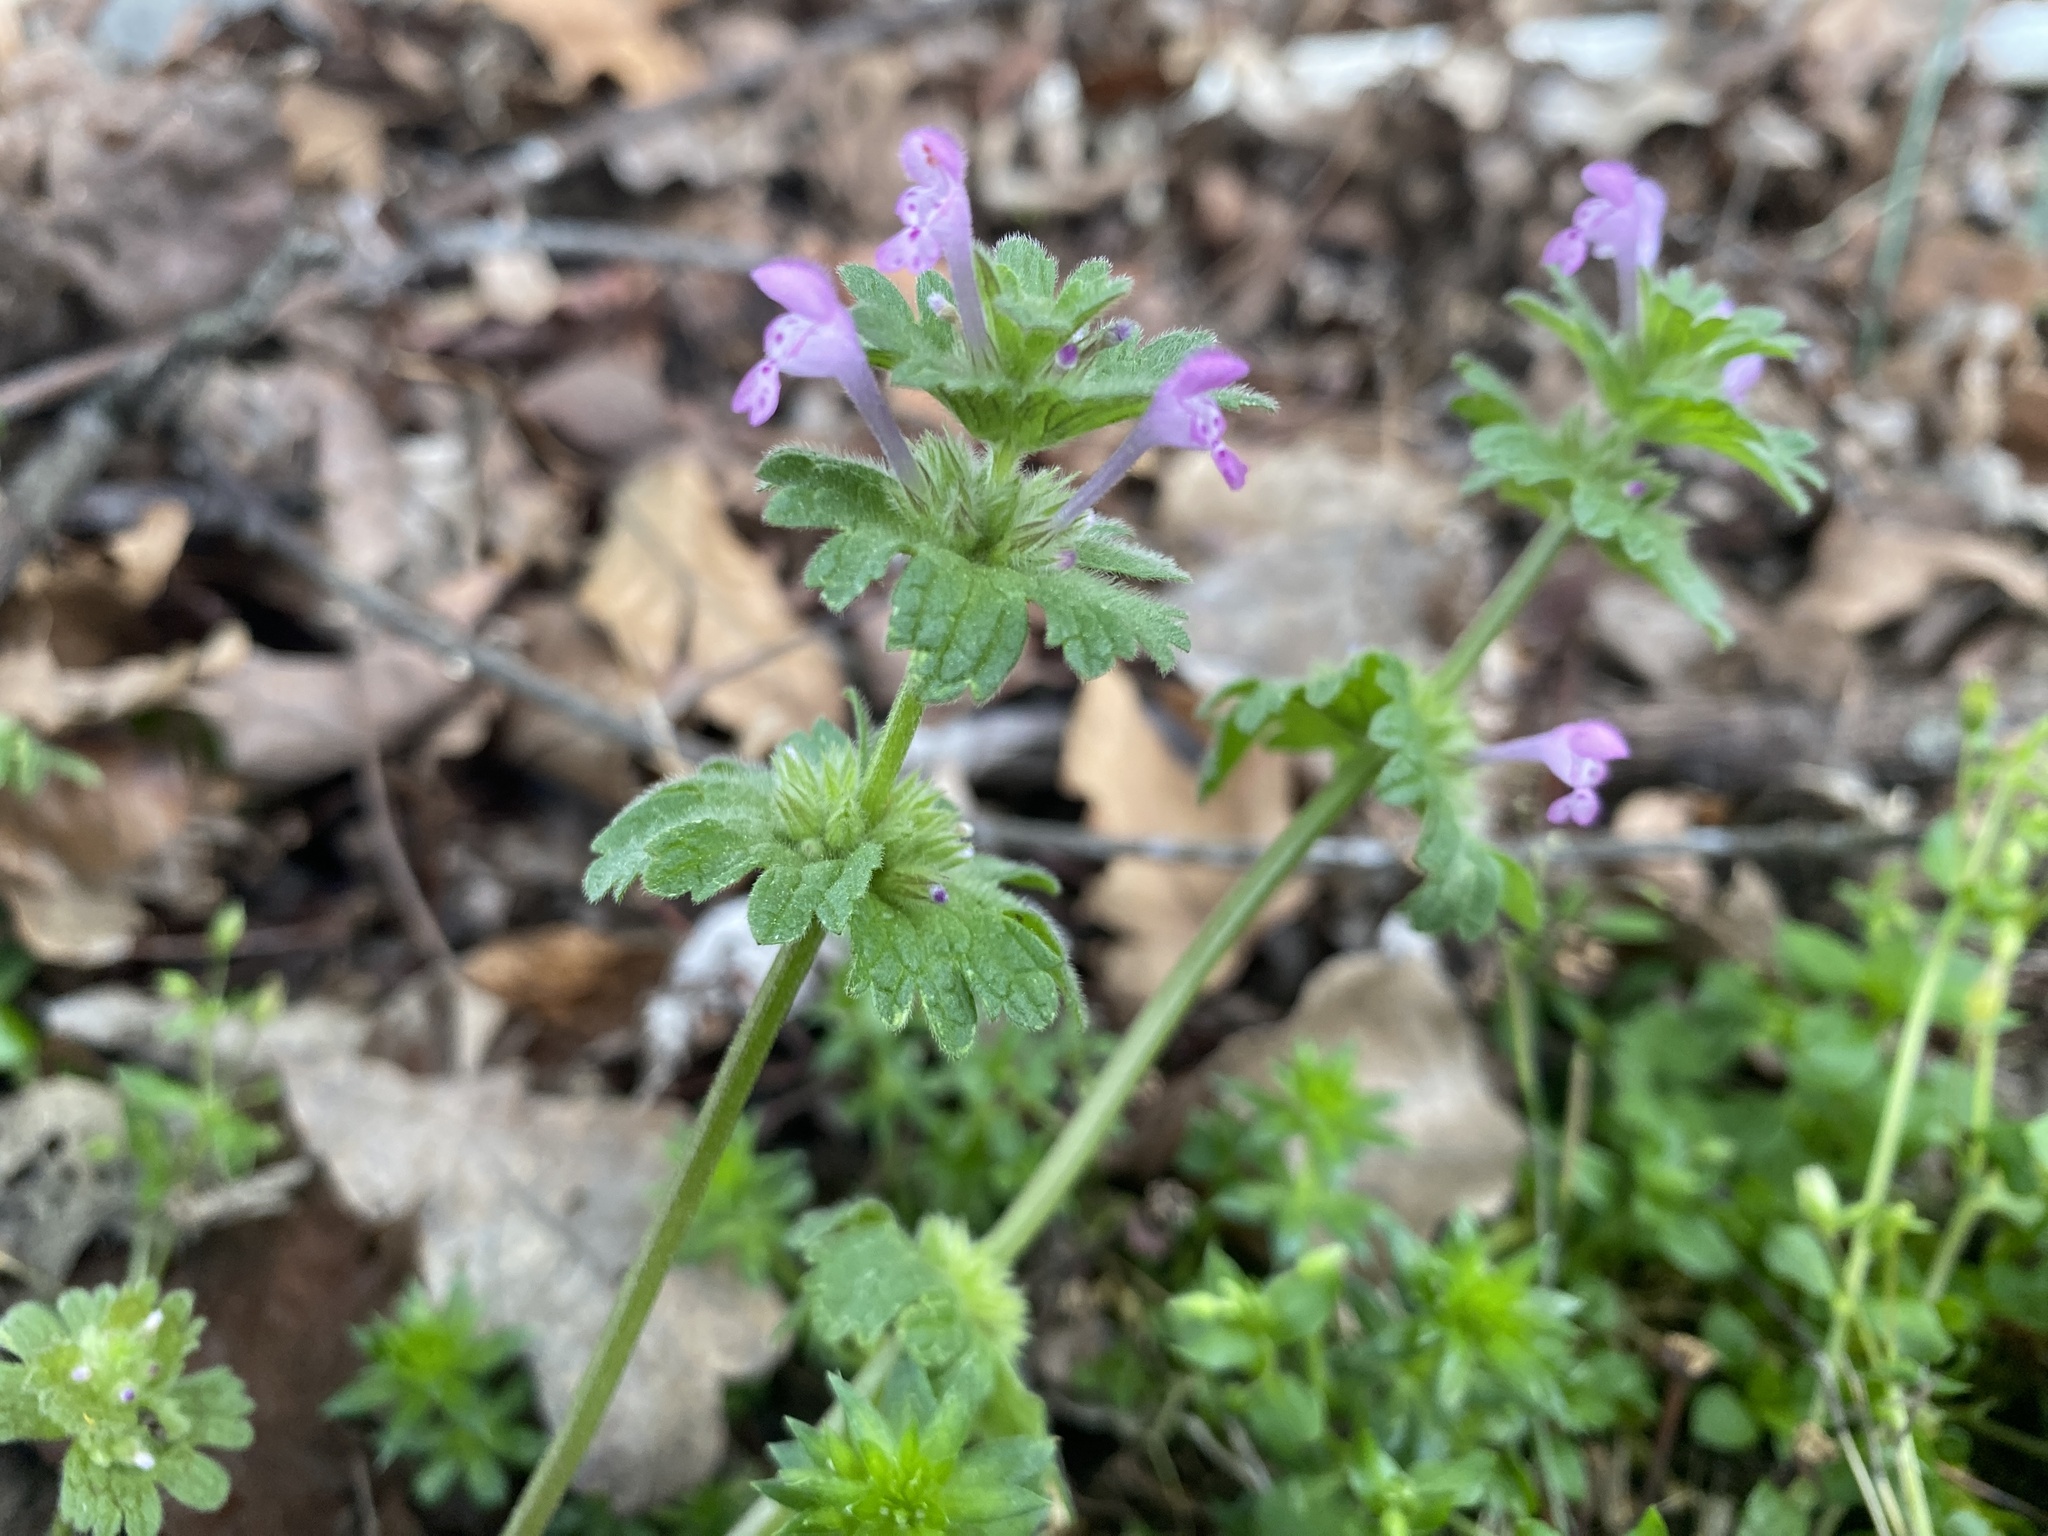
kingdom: Plantae
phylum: Tracheophyta
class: Magnoliopsida
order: Lamiales
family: Lamiaceae
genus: Lamium
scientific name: Lamium amplexicaule
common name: Henbit dead-nettle
